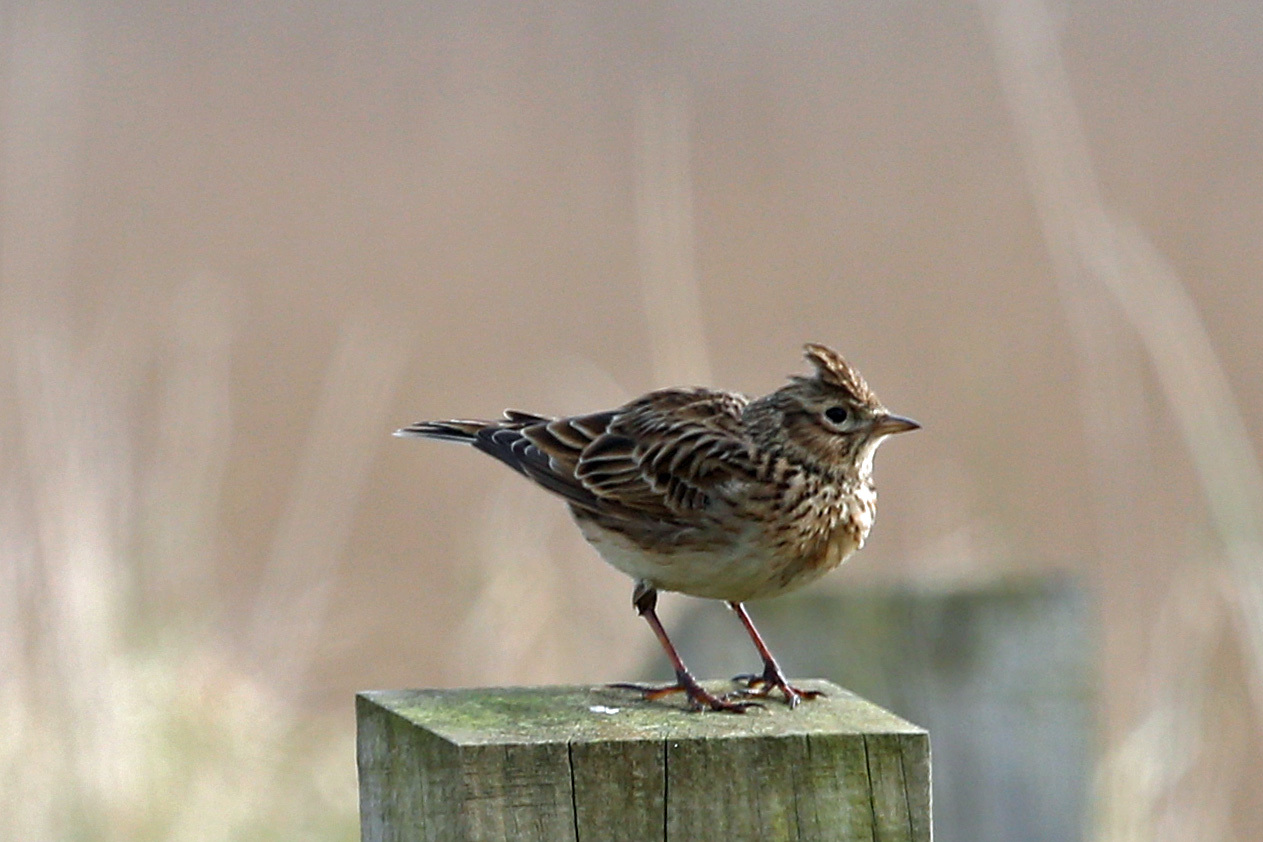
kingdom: Animalia
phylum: Chordata
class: Aves
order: Passeriformes
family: Alaudidae
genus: Alauda
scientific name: Alauda arvensis
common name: Eurasian skylark
